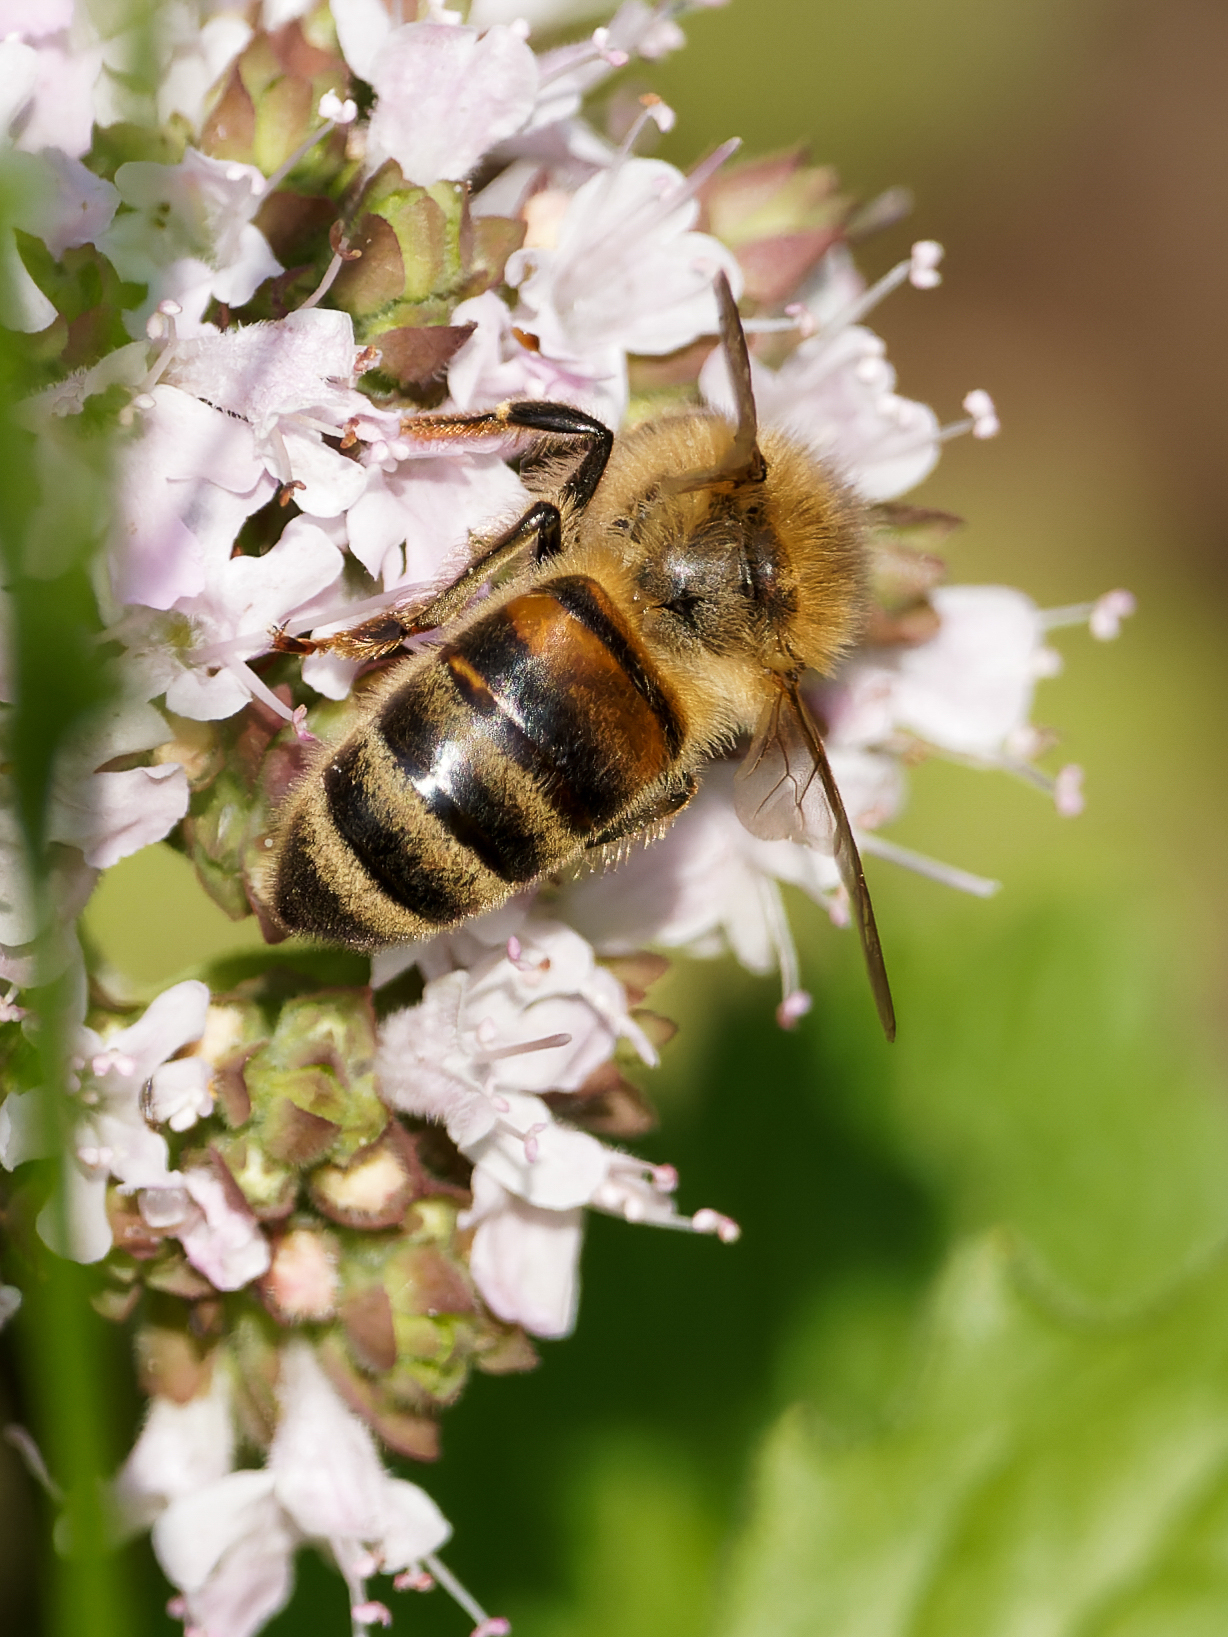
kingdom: Animalia
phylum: Arthropoda
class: Insecta
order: Hymenoptera
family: Apidae
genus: Apis
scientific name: Apis mellifera
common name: Honey bee
